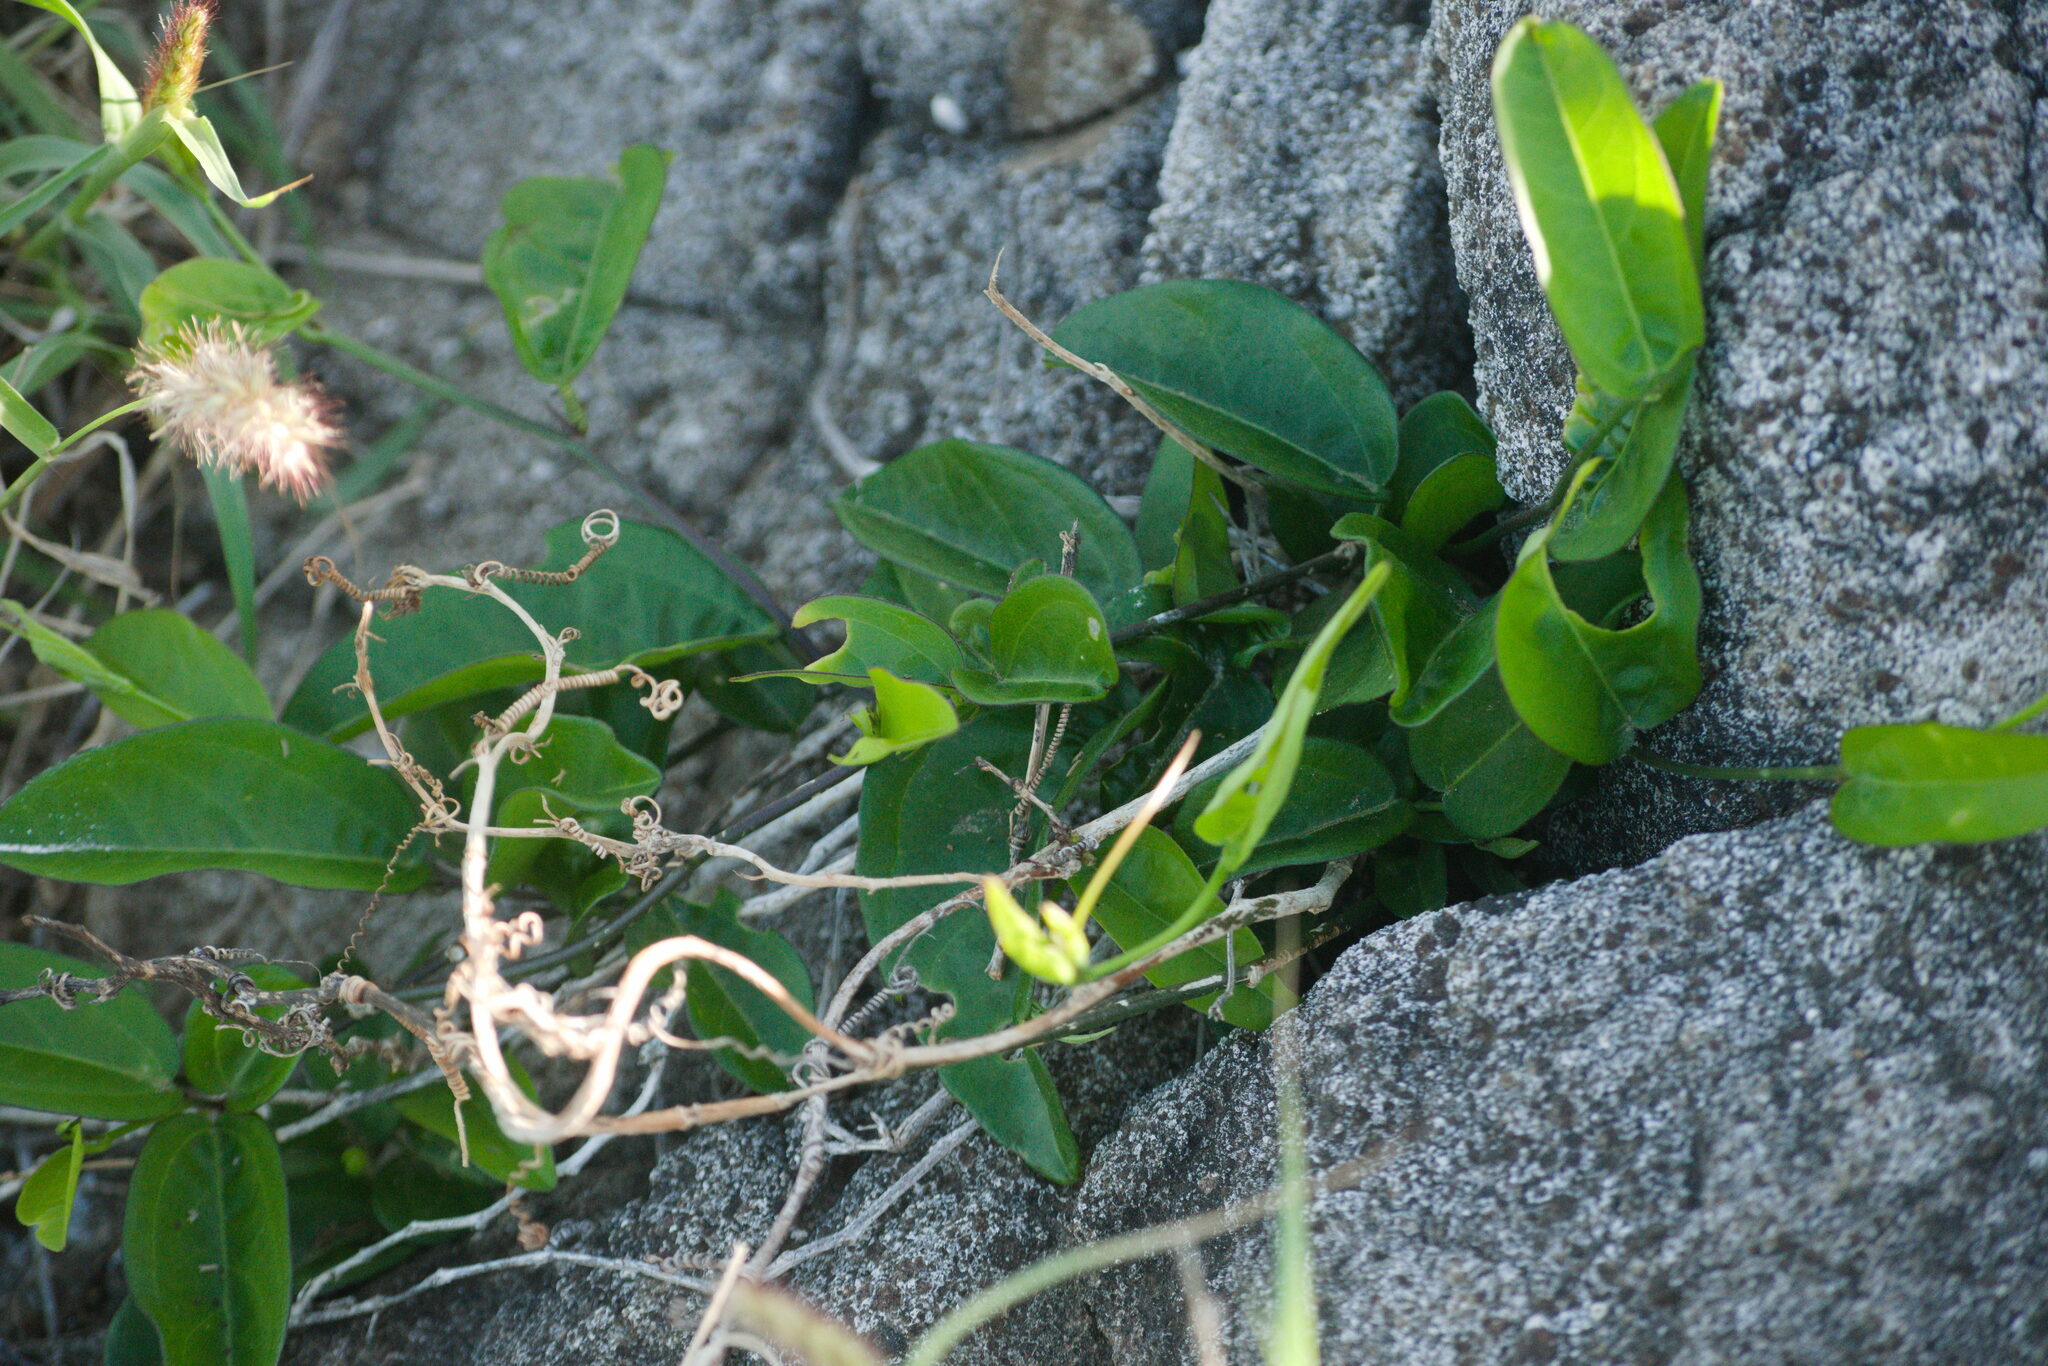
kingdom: Plantae
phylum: Tracheophyta
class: Magnoliopsida
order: Malpighiales
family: Passifloraceae
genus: Passiflora
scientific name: Passiflora suberosa
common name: Wild passionfruit
